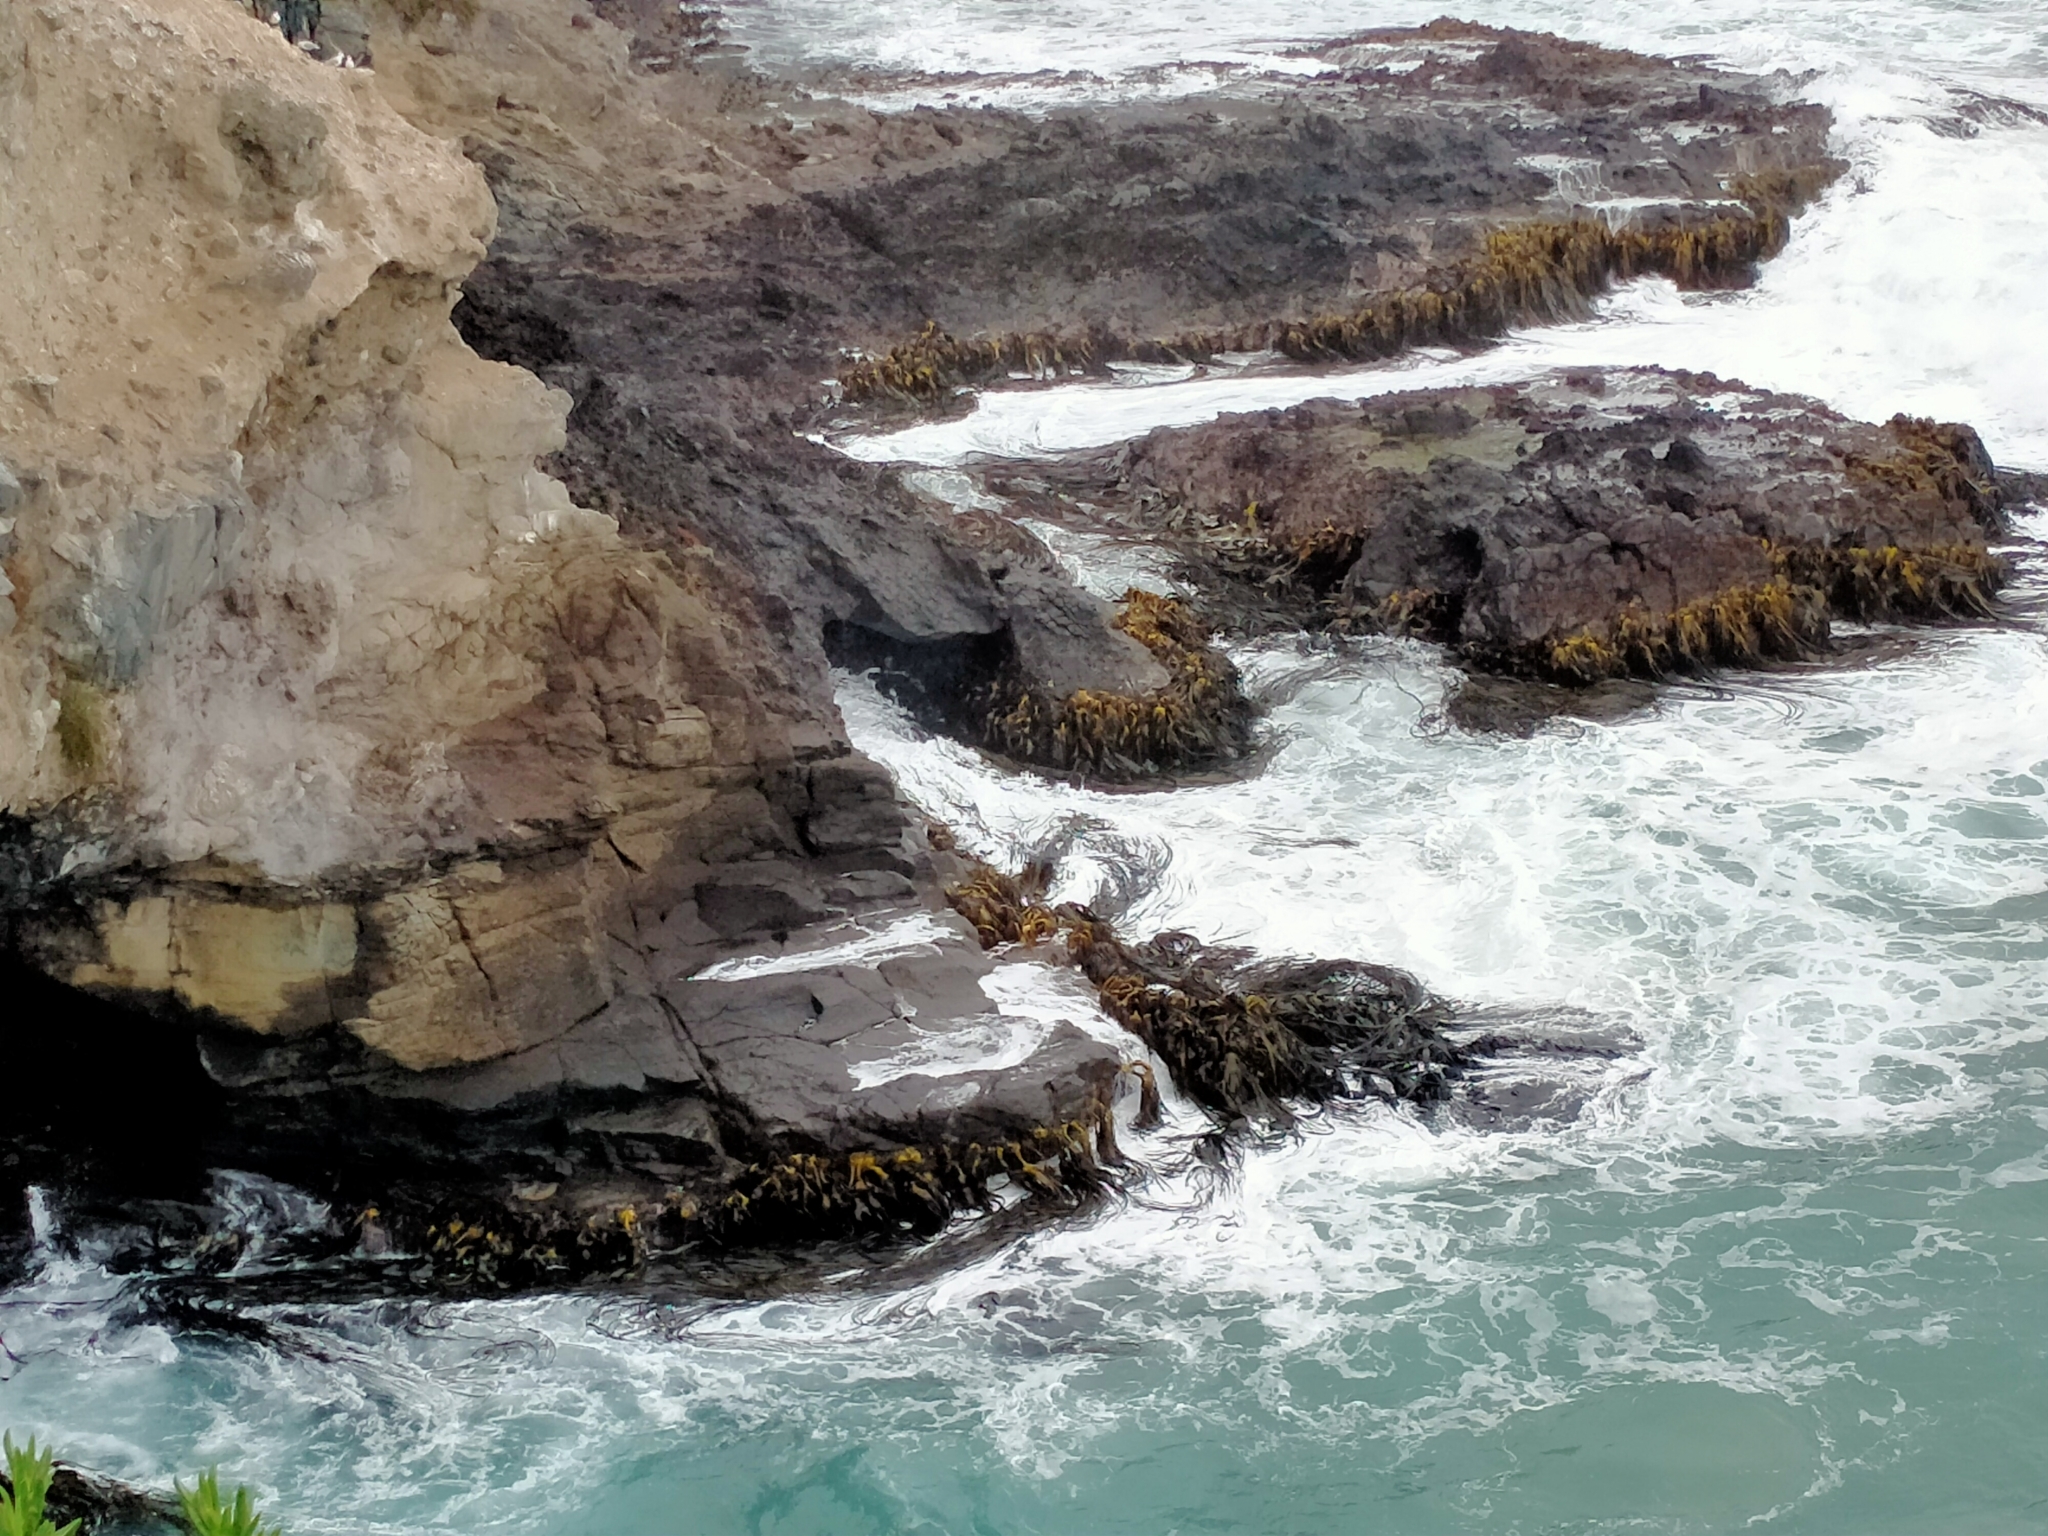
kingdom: Chromista
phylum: Ochrophyta
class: Phaeophyceae
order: Fucales
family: Durvillaeaceae
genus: Durvillaea
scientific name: Durvillaea antarctica
